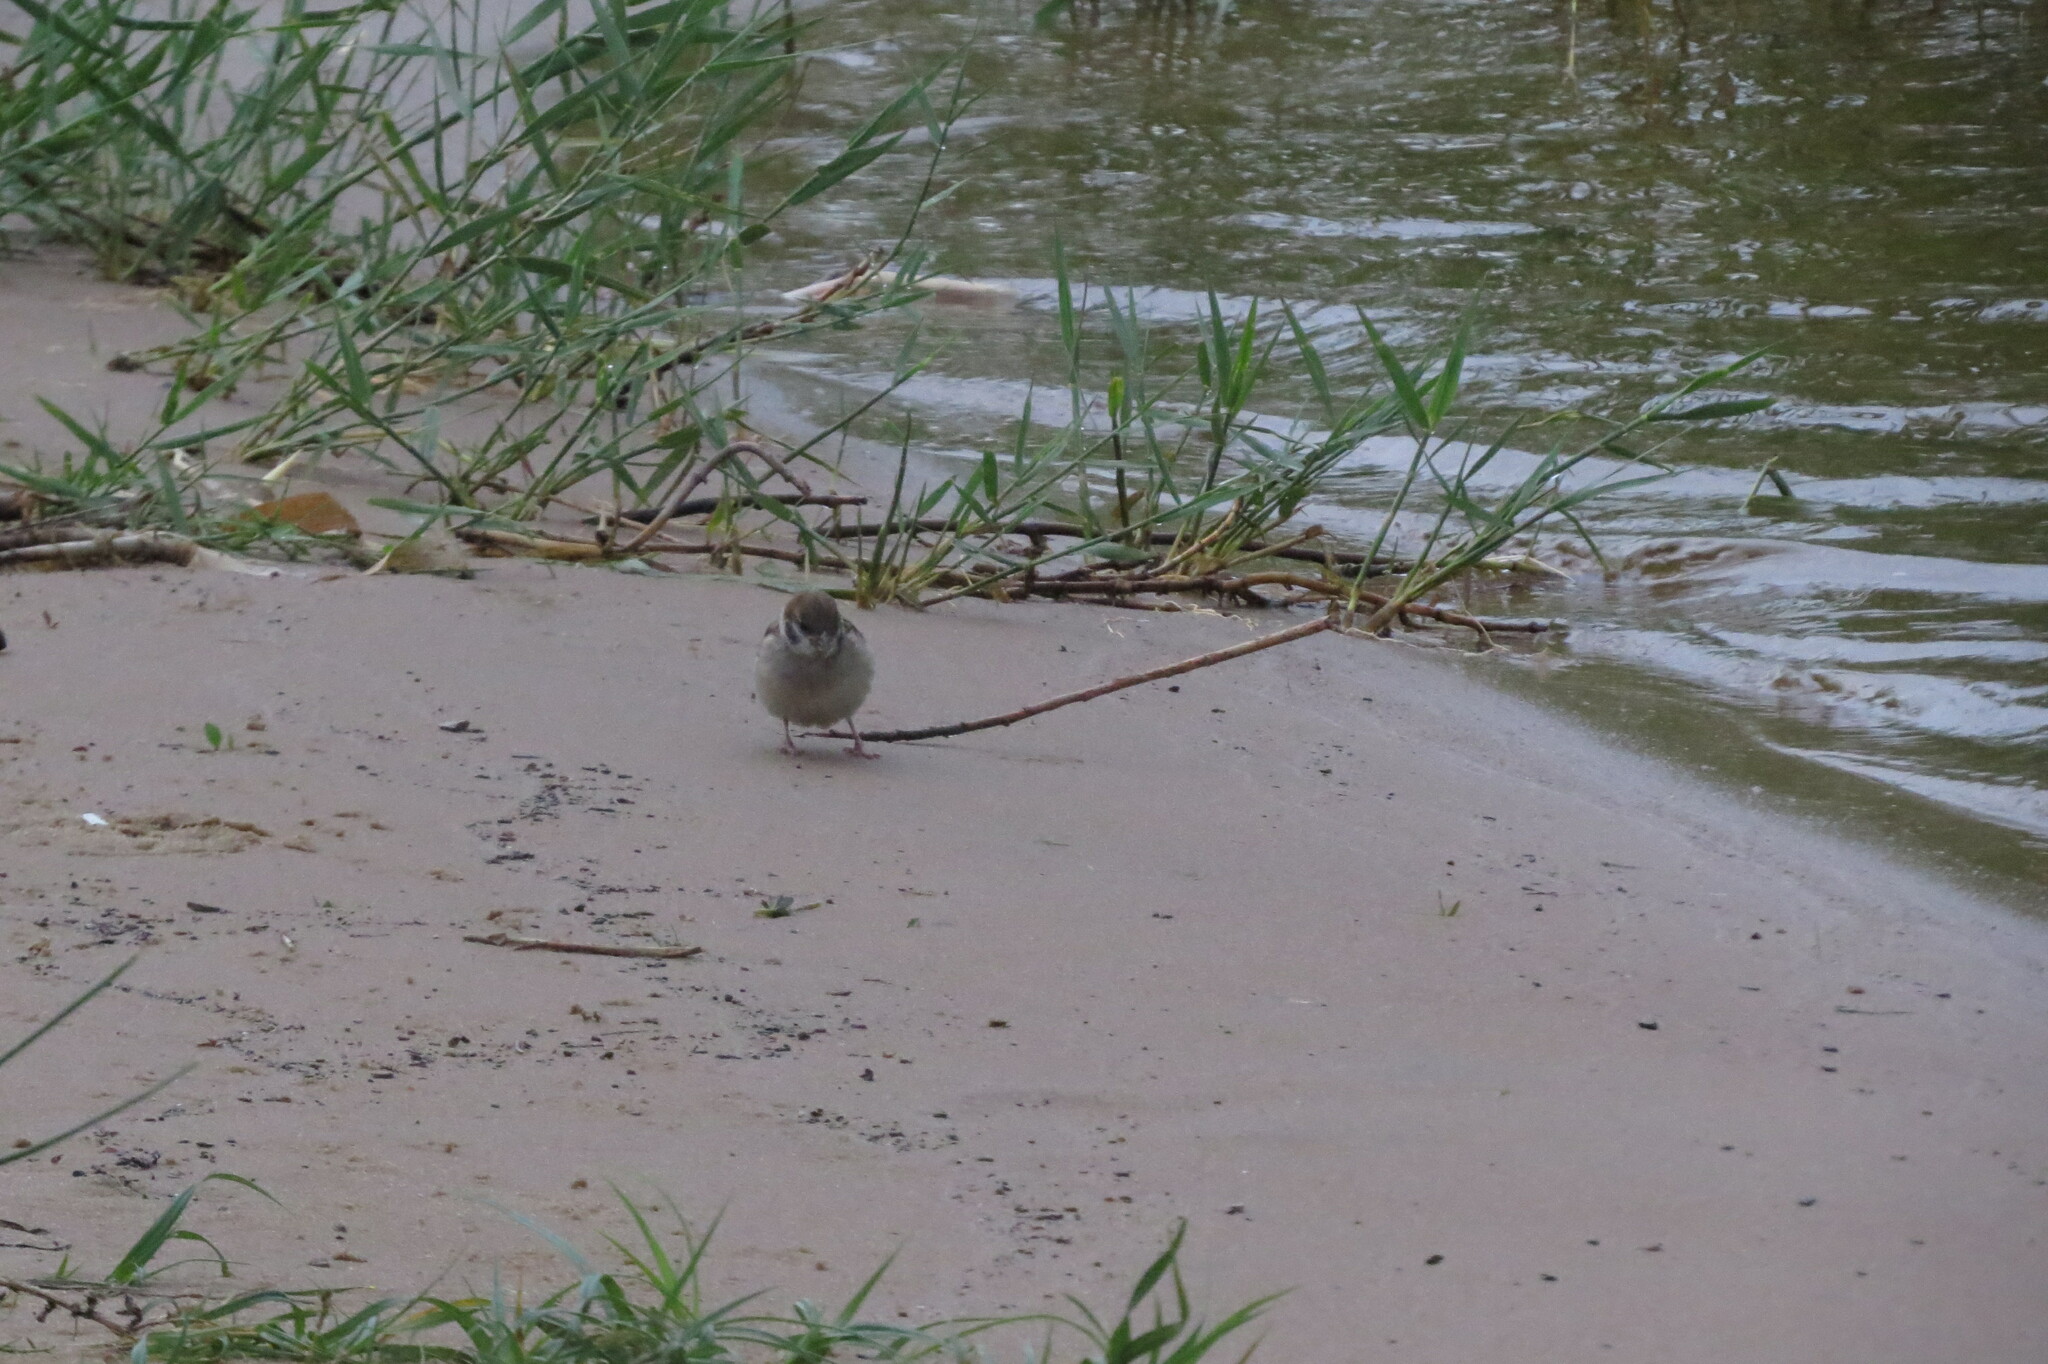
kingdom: Animalia
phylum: Chordata
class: Aves
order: Passeriformes
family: Passeridae
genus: Passer
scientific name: Passer montanus
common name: Eurasian tree sparrow
